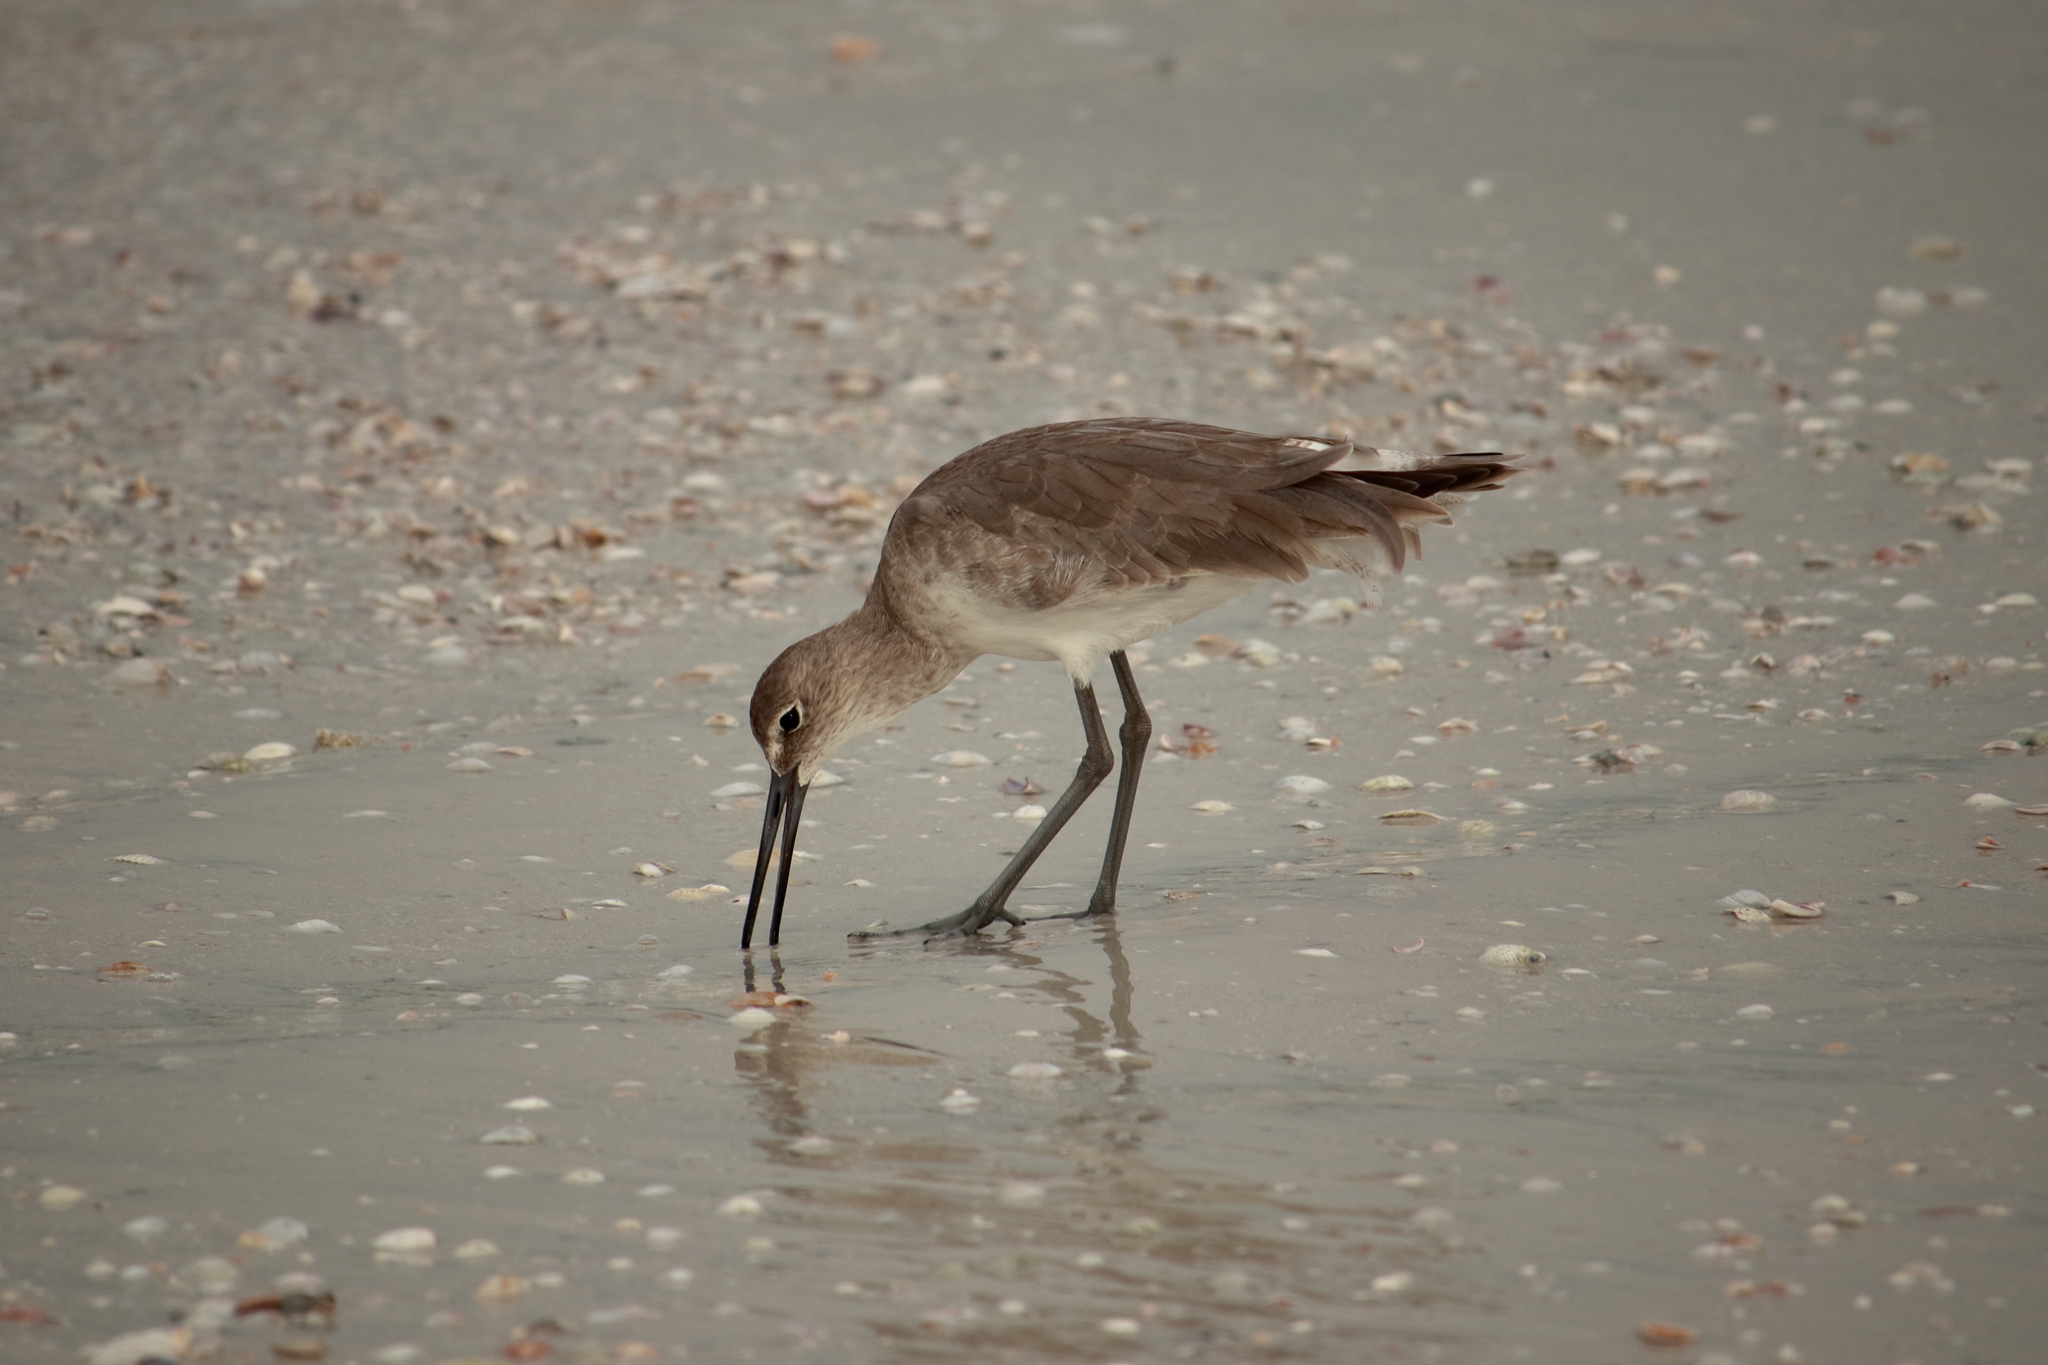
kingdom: Animalia
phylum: Chordata
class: Aves
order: Charadriiformes
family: Scolopacidae
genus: Tringa
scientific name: Tringa semipalmata
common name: Willet
